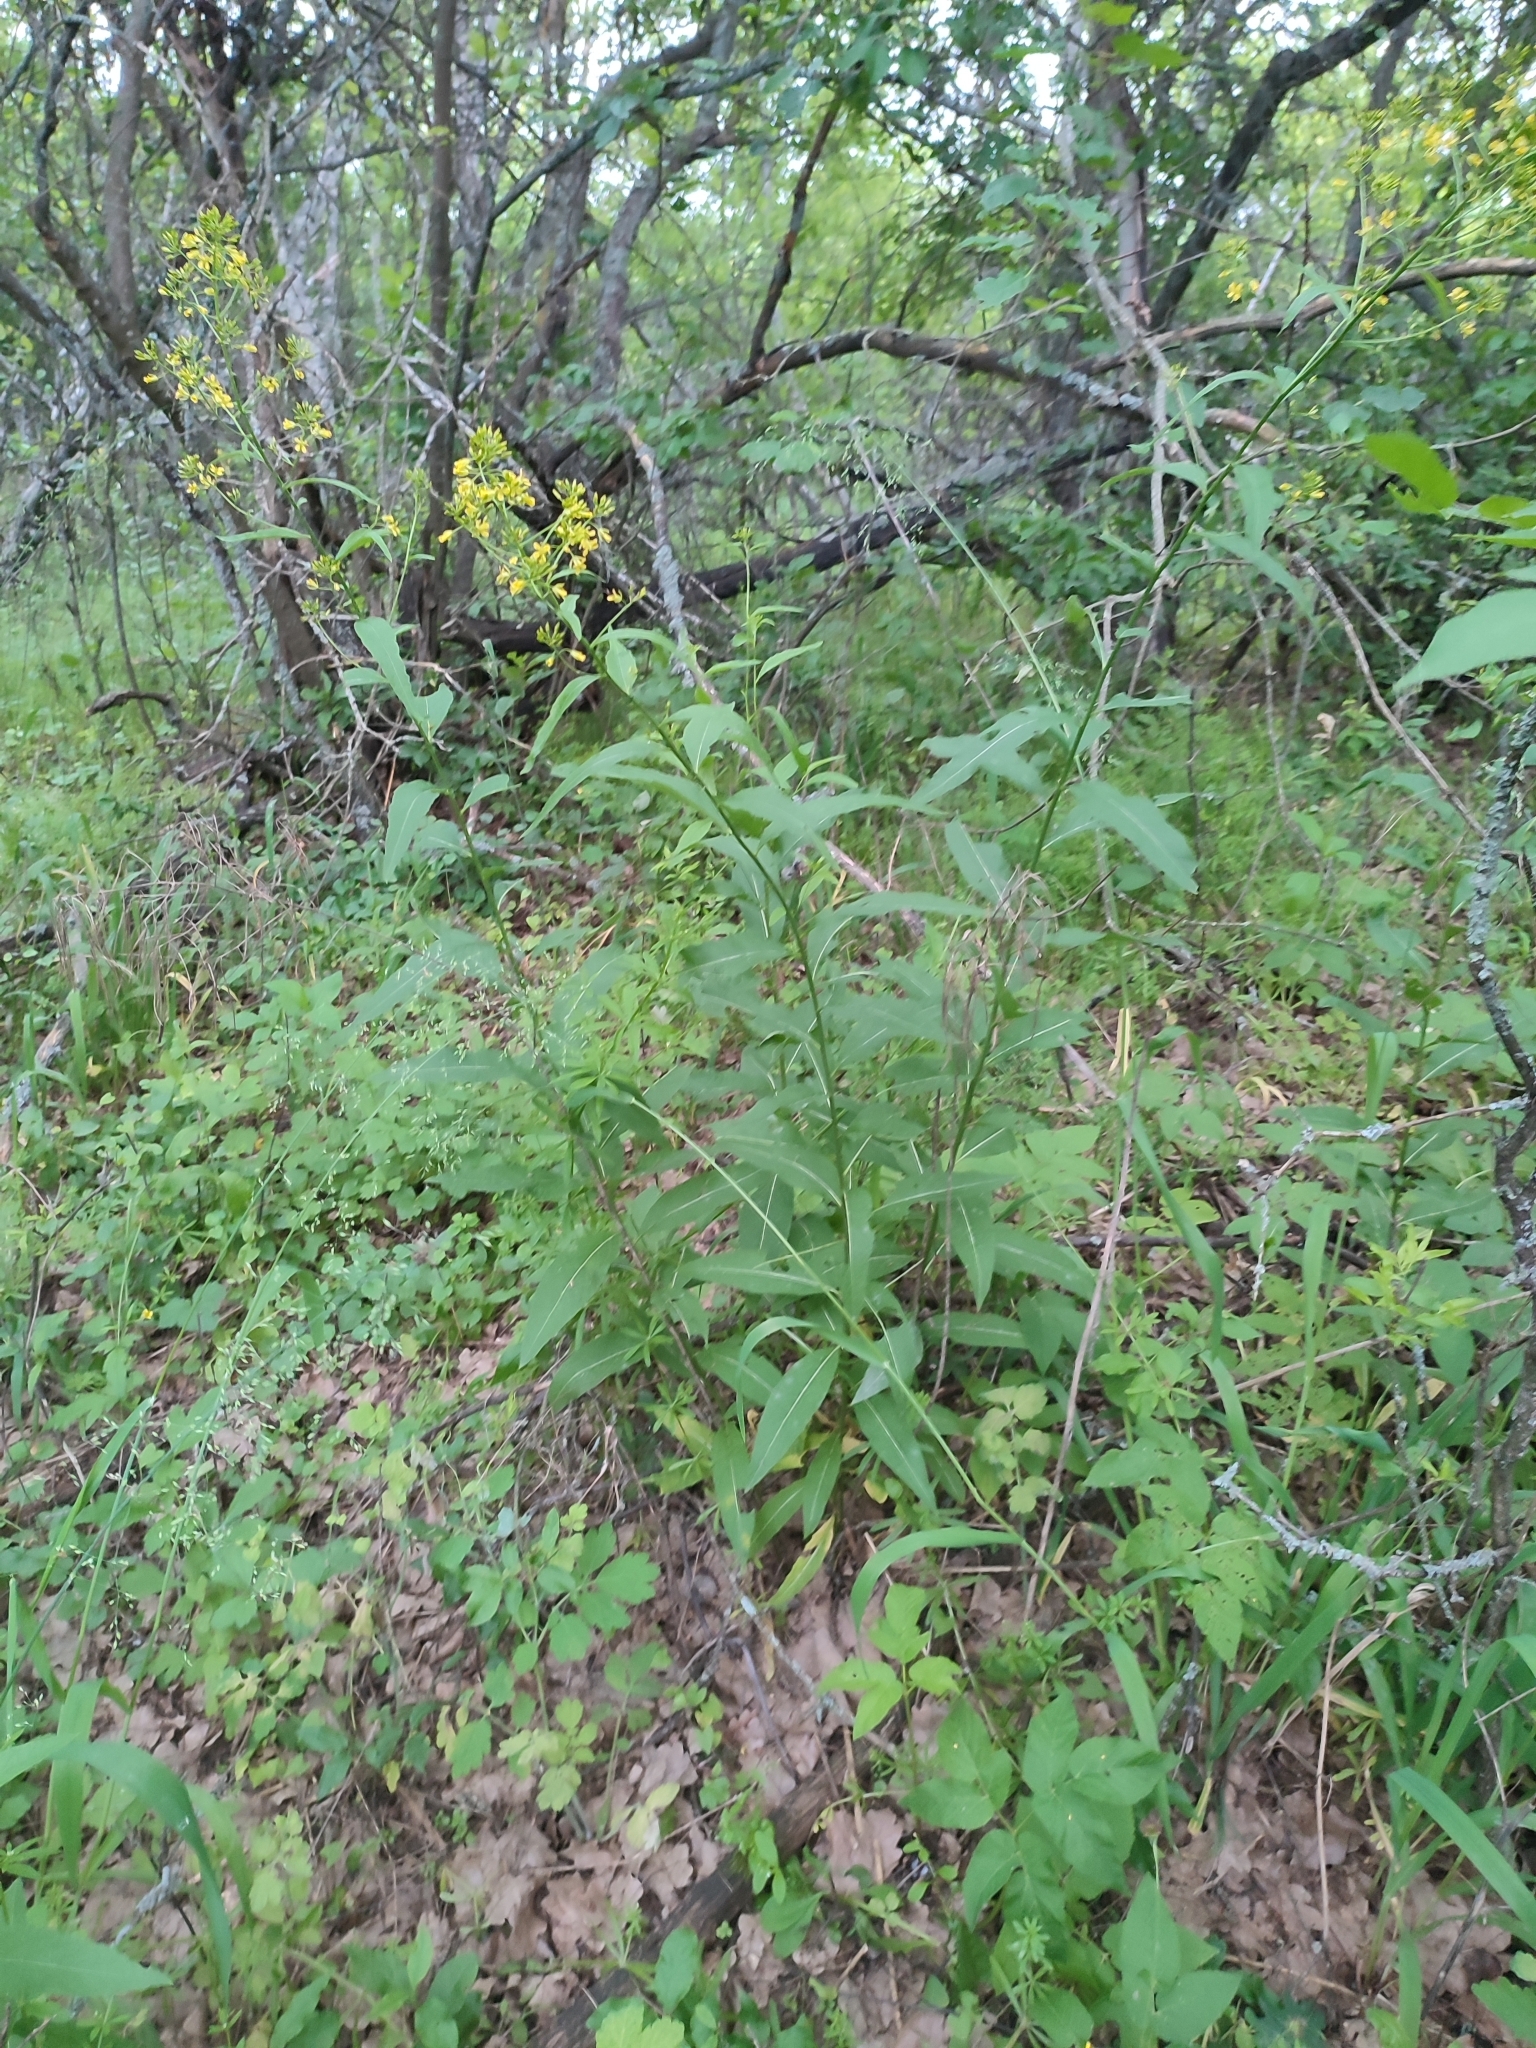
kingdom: Plantae
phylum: Tracheophyta
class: Magnoliopsida
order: Brassicales
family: Brassicaceae
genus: Sisymbrium
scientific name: Sisymbrium strictissimum
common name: Perennial rocket
